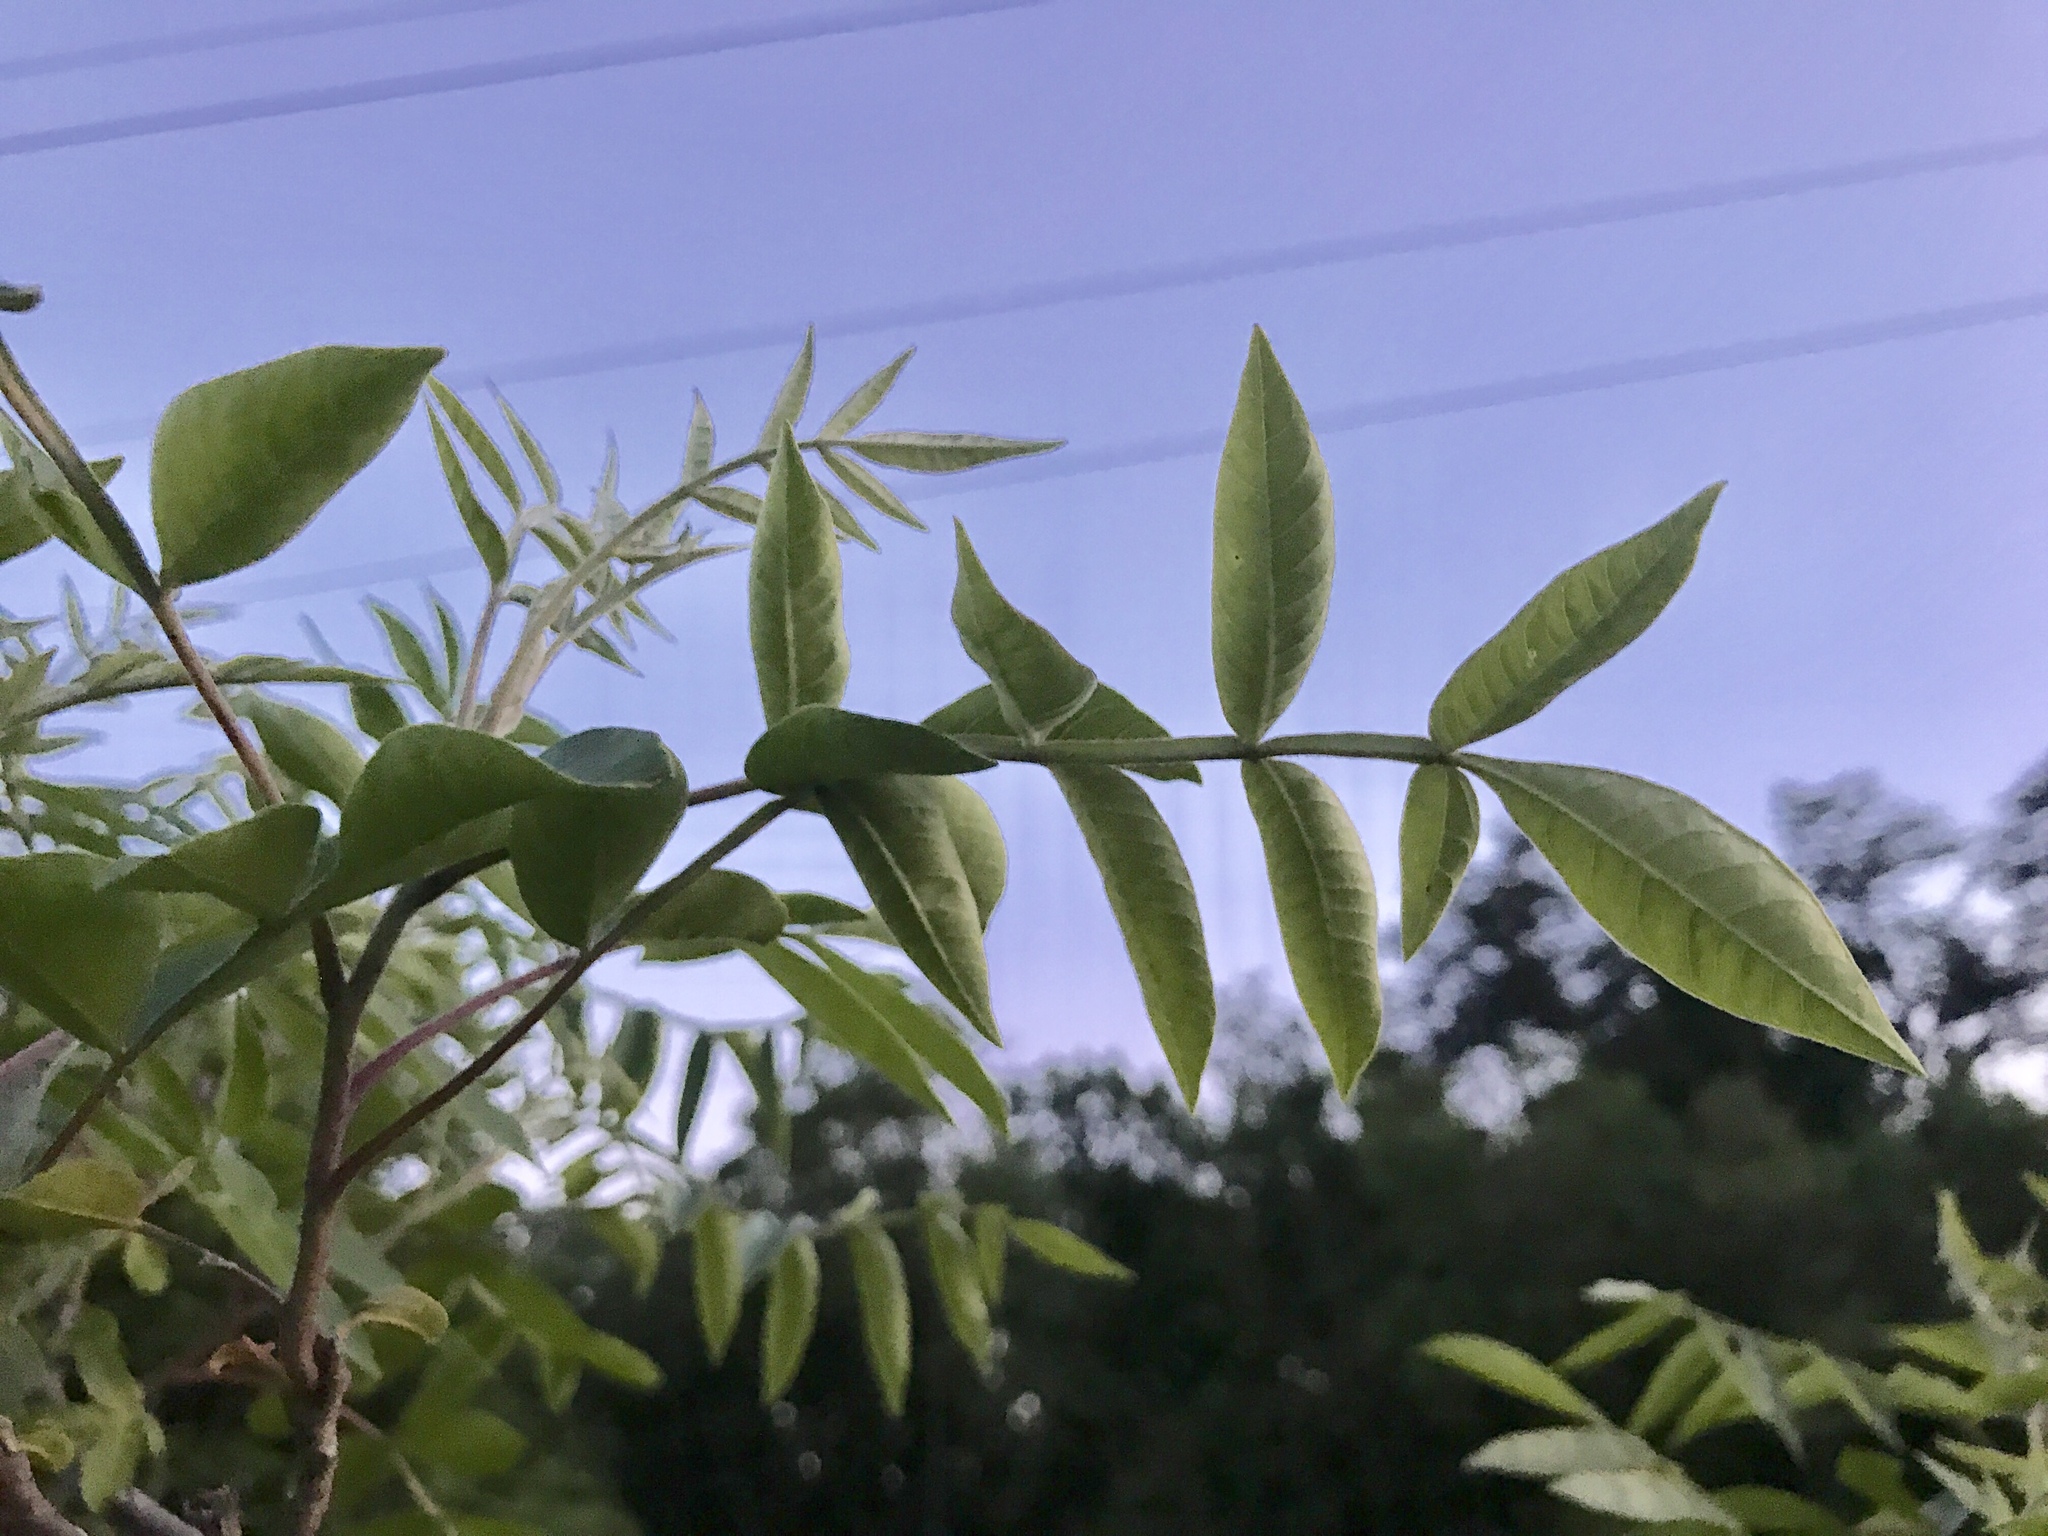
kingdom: Plantae
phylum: Tracheophyta
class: Magnoliopsida
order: Sapindales
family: Anacardiaceae
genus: Rhus
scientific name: Rhus copallina
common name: Shining sumac
